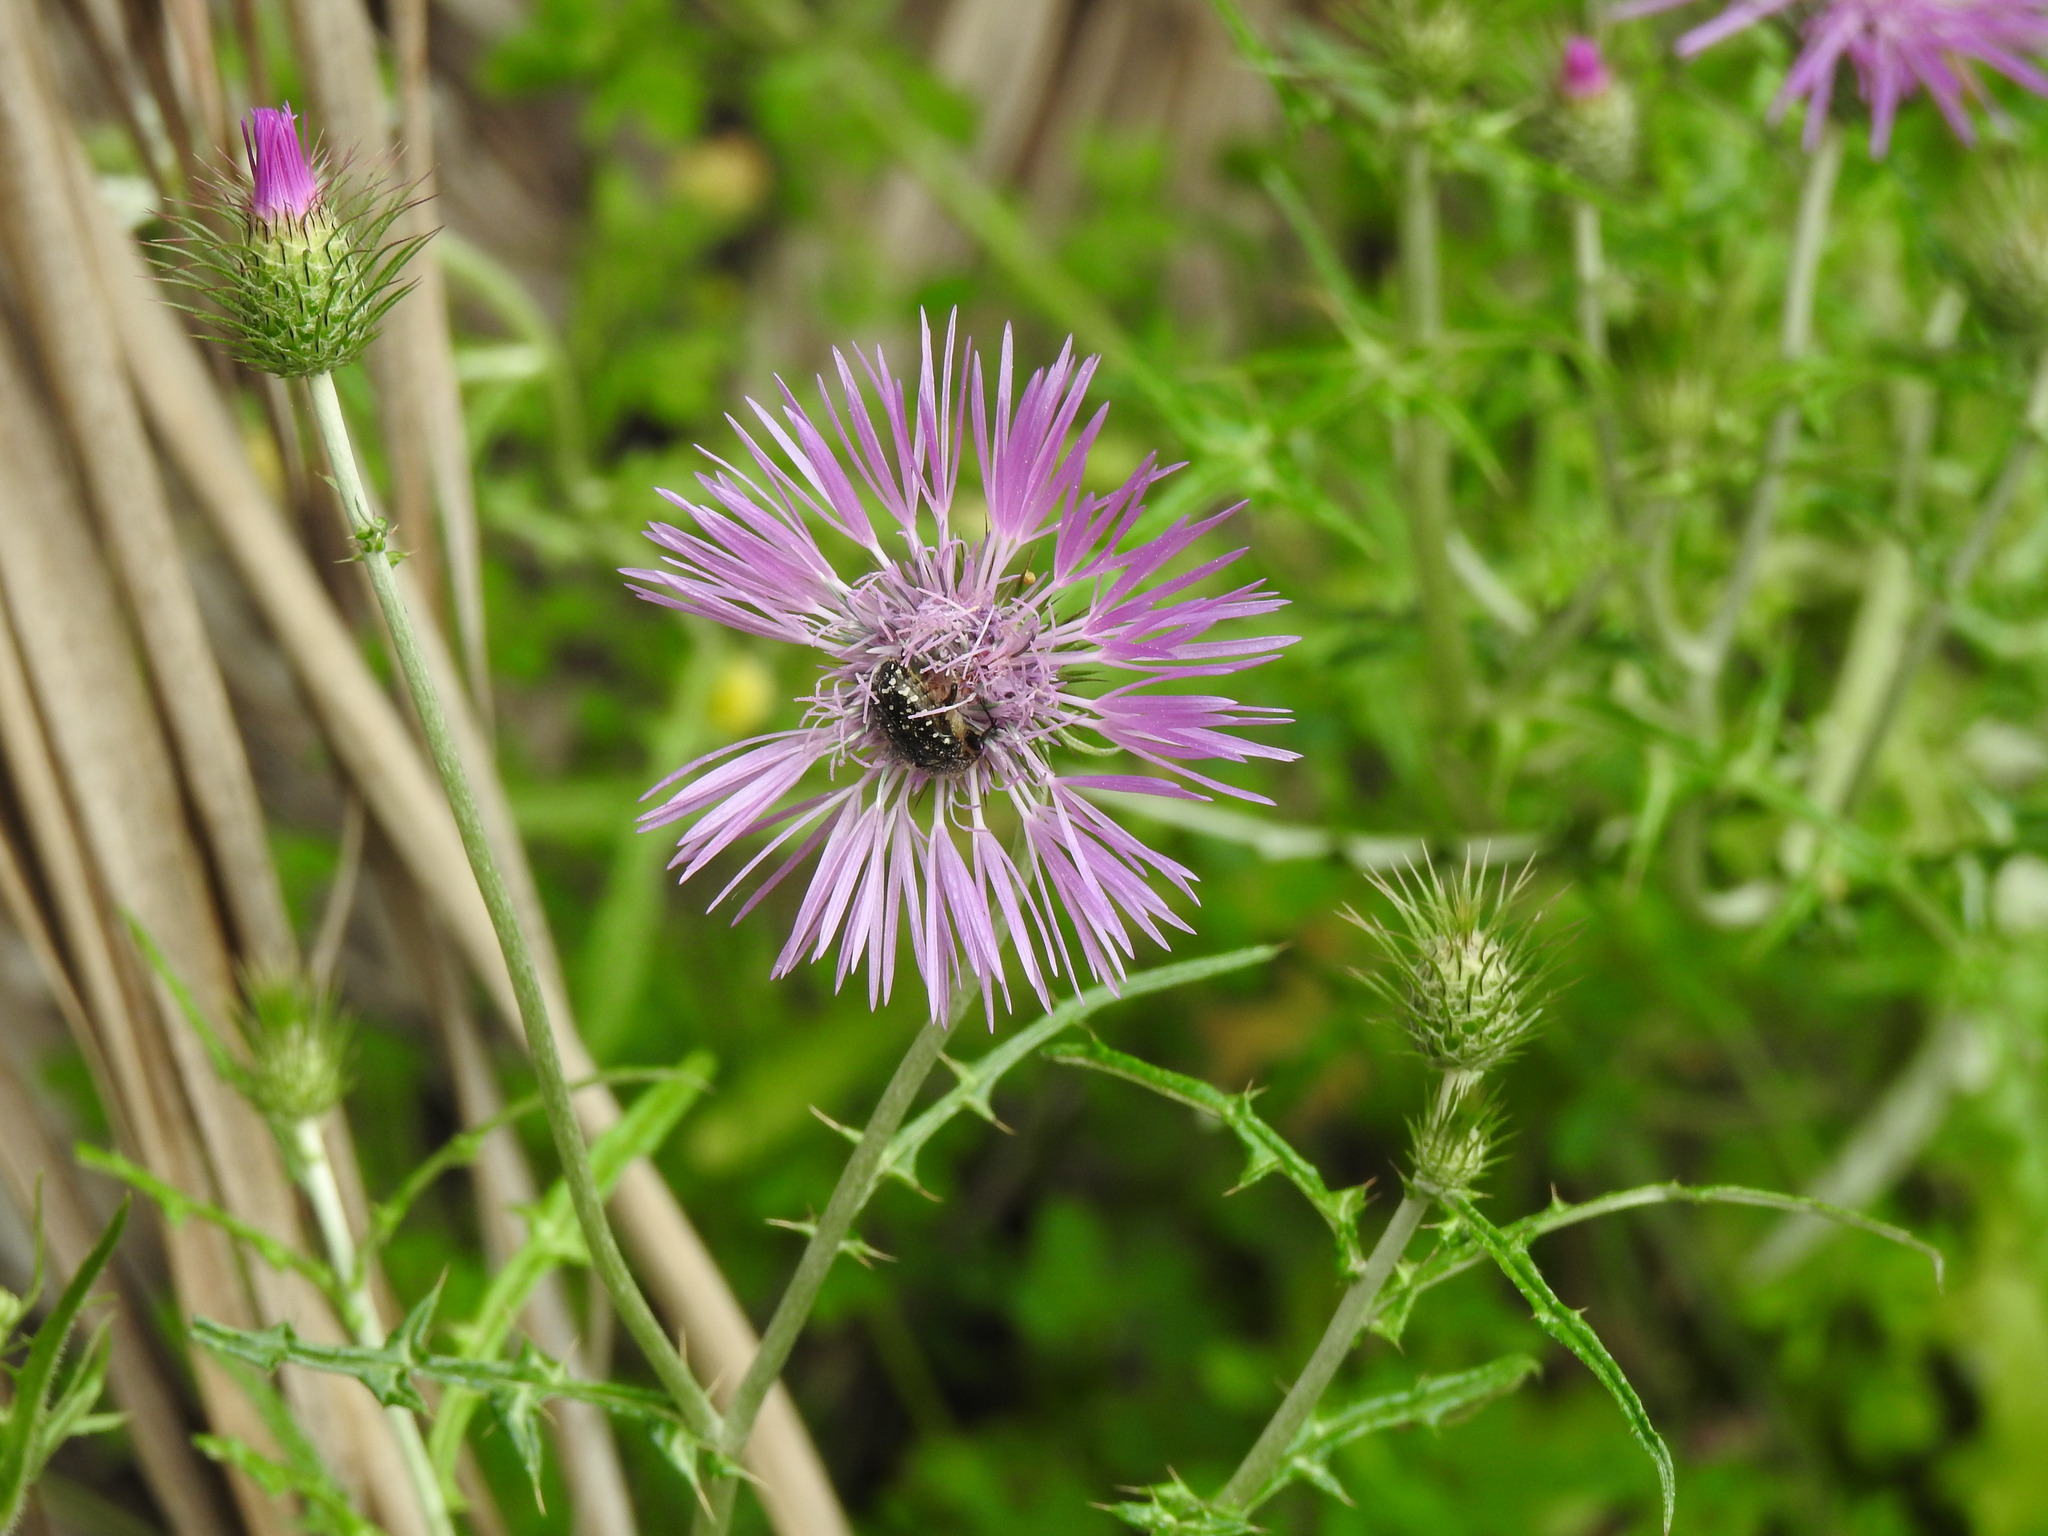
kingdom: Animalia
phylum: Arthropoda
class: Insecta
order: Coleoptera
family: Scarabaeidae
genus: Oxythyrea
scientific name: Oxythyrea funesta
